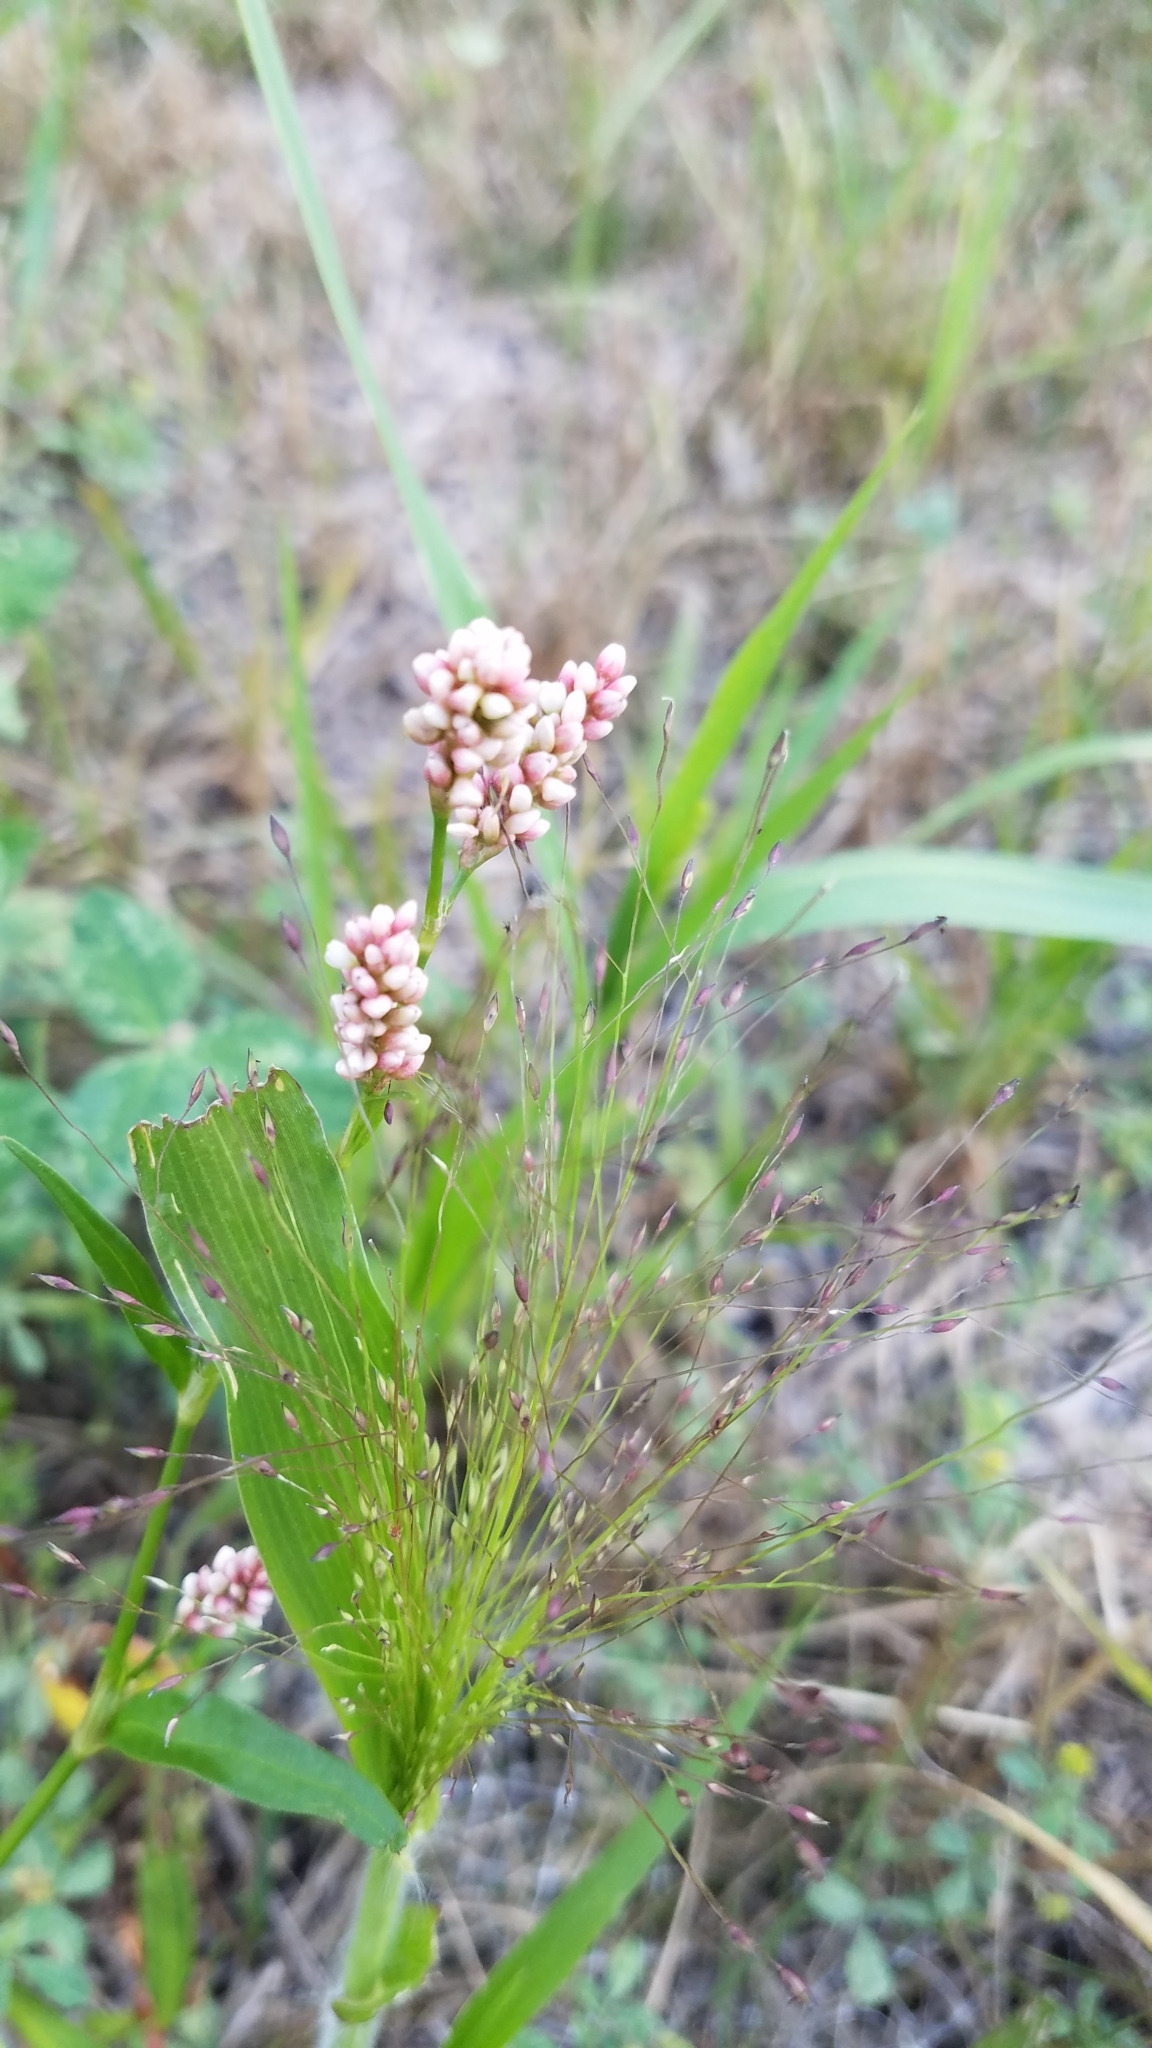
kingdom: Plantae
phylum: Tracheophyta
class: Magnoliopsida
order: Caryophyllales
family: Polygonaceae
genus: Persicaria
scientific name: Persicaria maculosa
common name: Redshank
